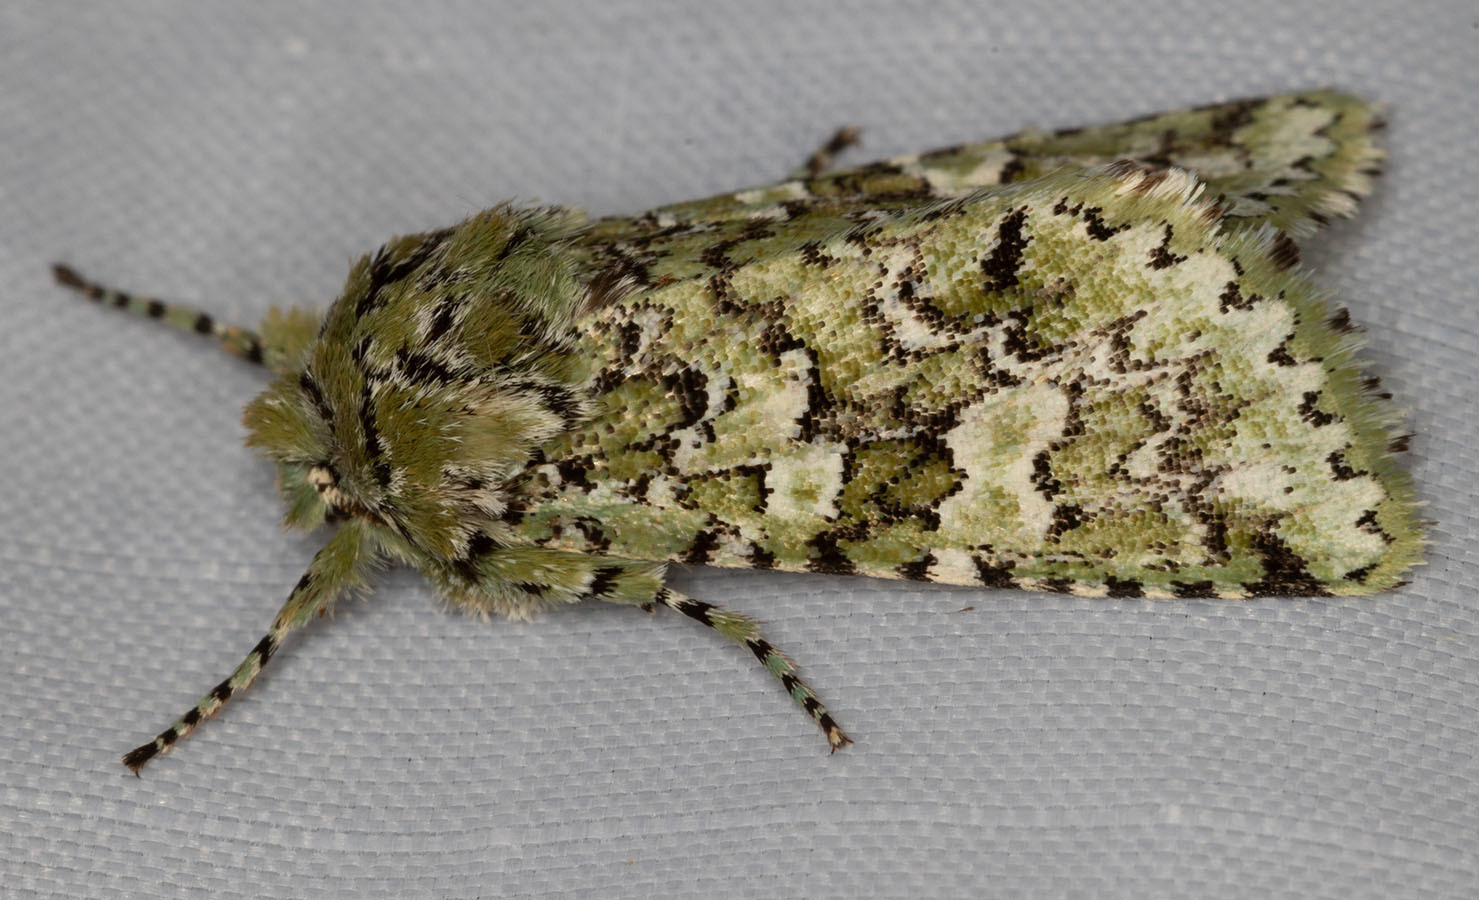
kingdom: Animalia
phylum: Arthropoda
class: Insecta
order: Lepidoptera
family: Noctuidae
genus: Feralia
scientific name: Feralia februalis
